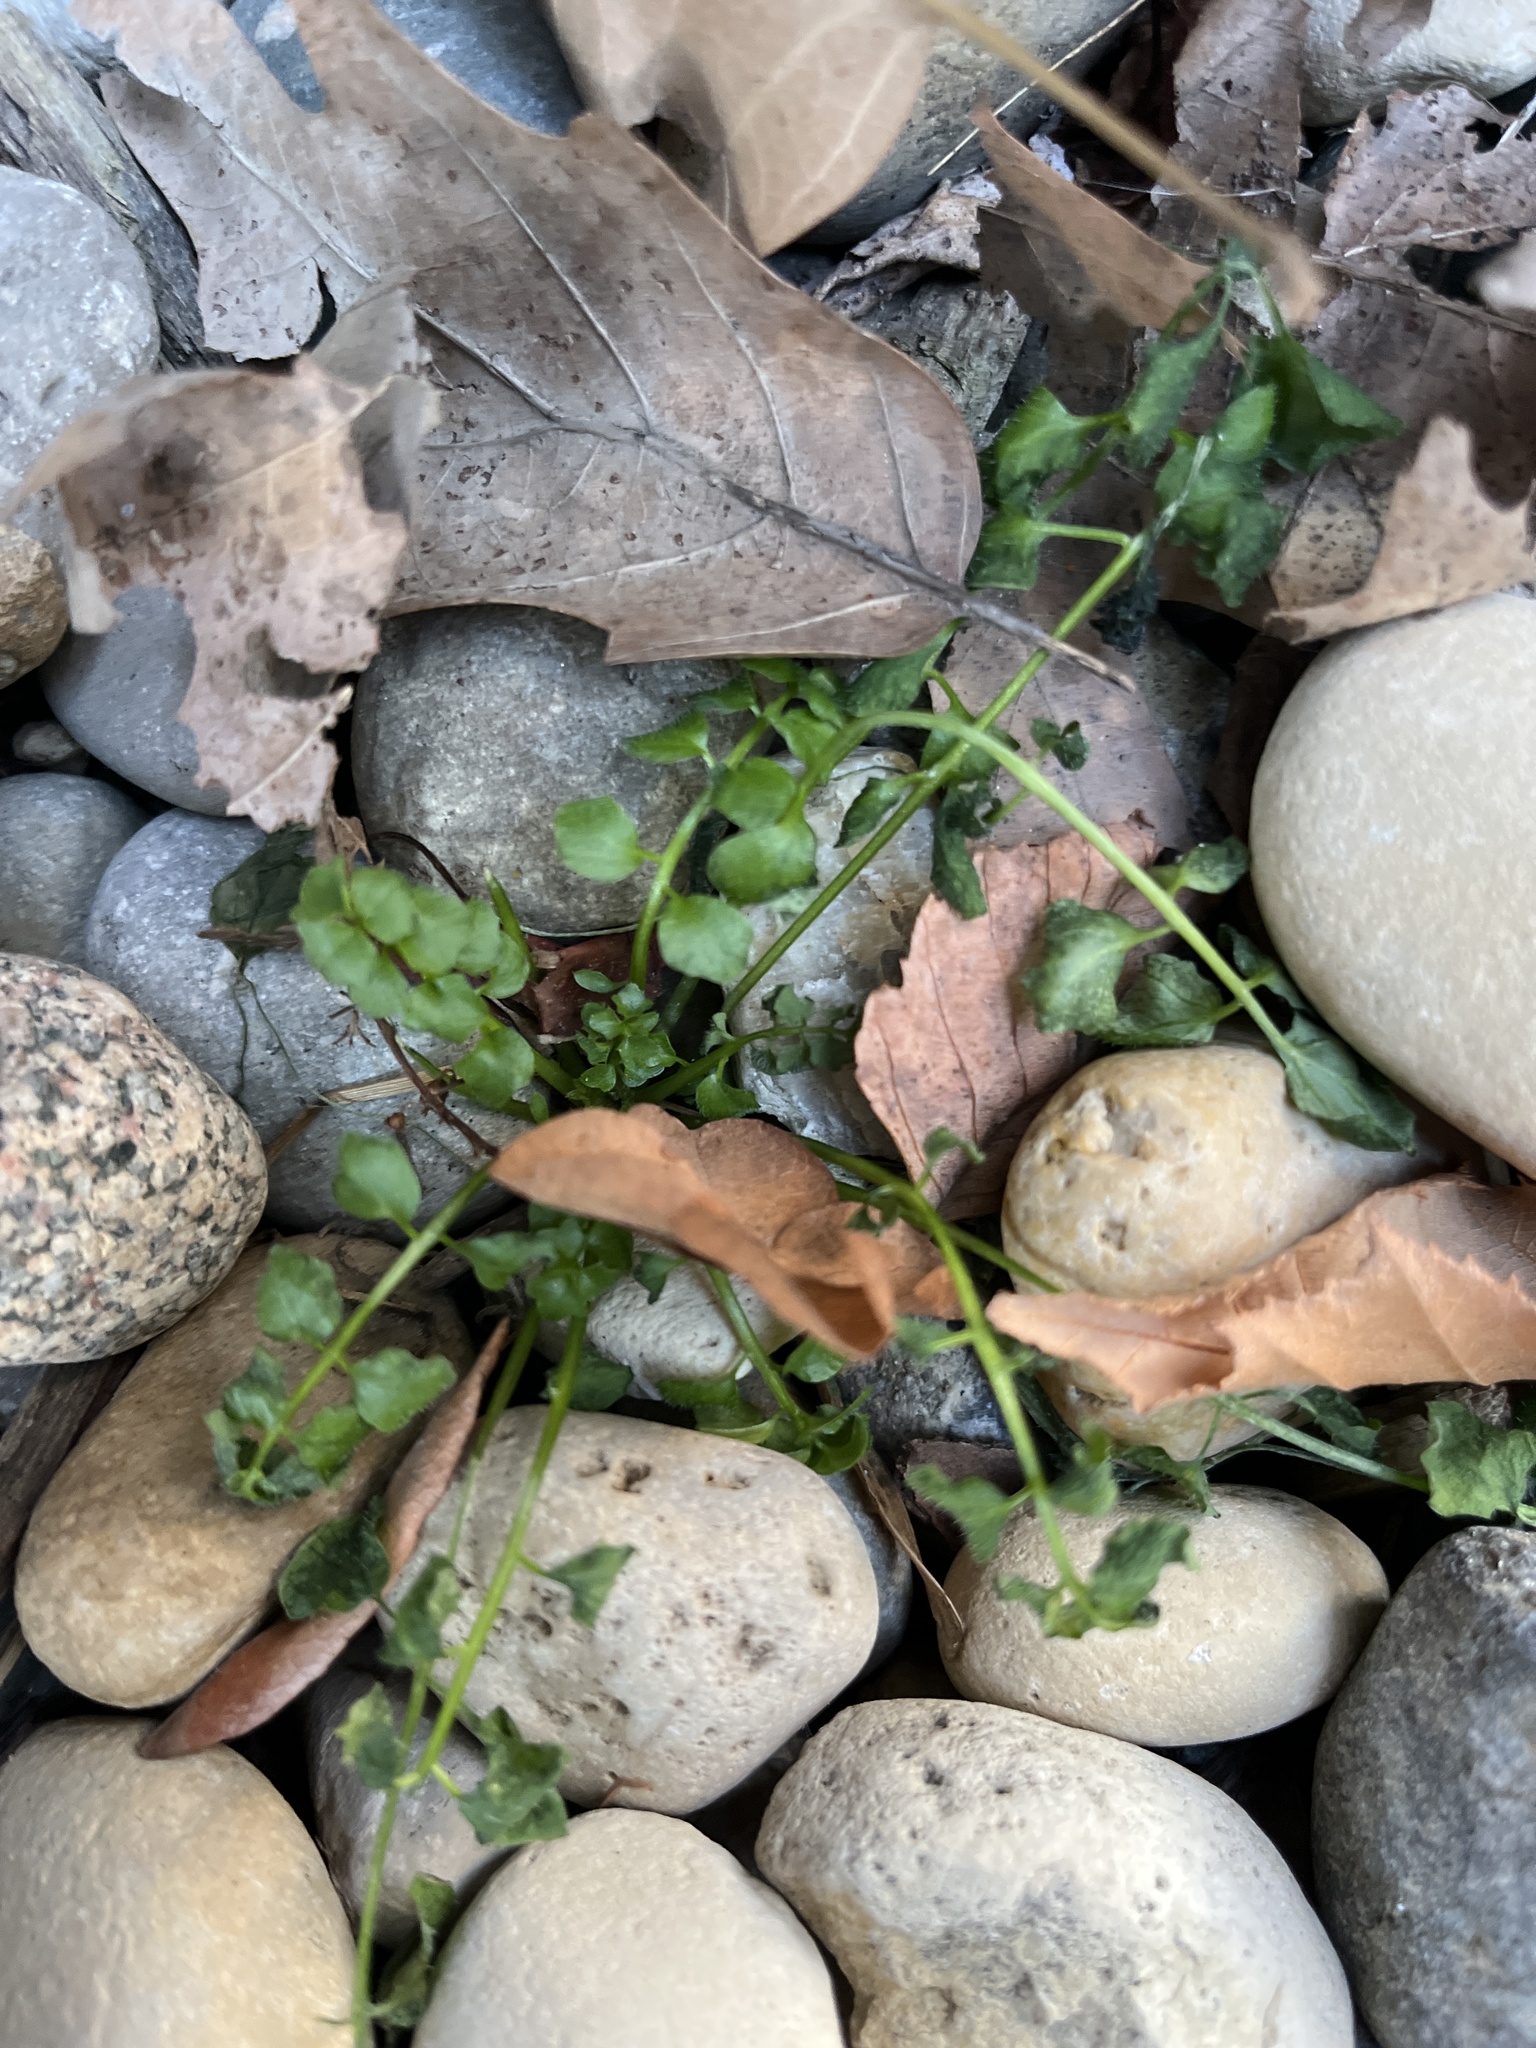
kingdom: Plantae
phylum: Tracheophyta
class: Magnoliopsida
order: Brassicales
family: Brassicaceae
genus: Cardamine
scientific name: Cardamine hirsuta
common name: Hairy bittercress
